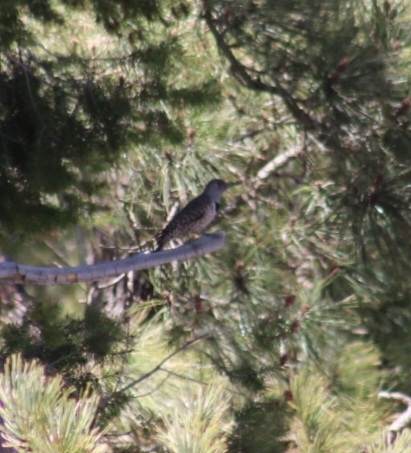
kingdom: Animalia
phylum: Chordata
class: Aves
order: Piciformes
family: Picidae
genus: Colaptes
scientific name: Colaptes auratus
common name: Northern flicker
